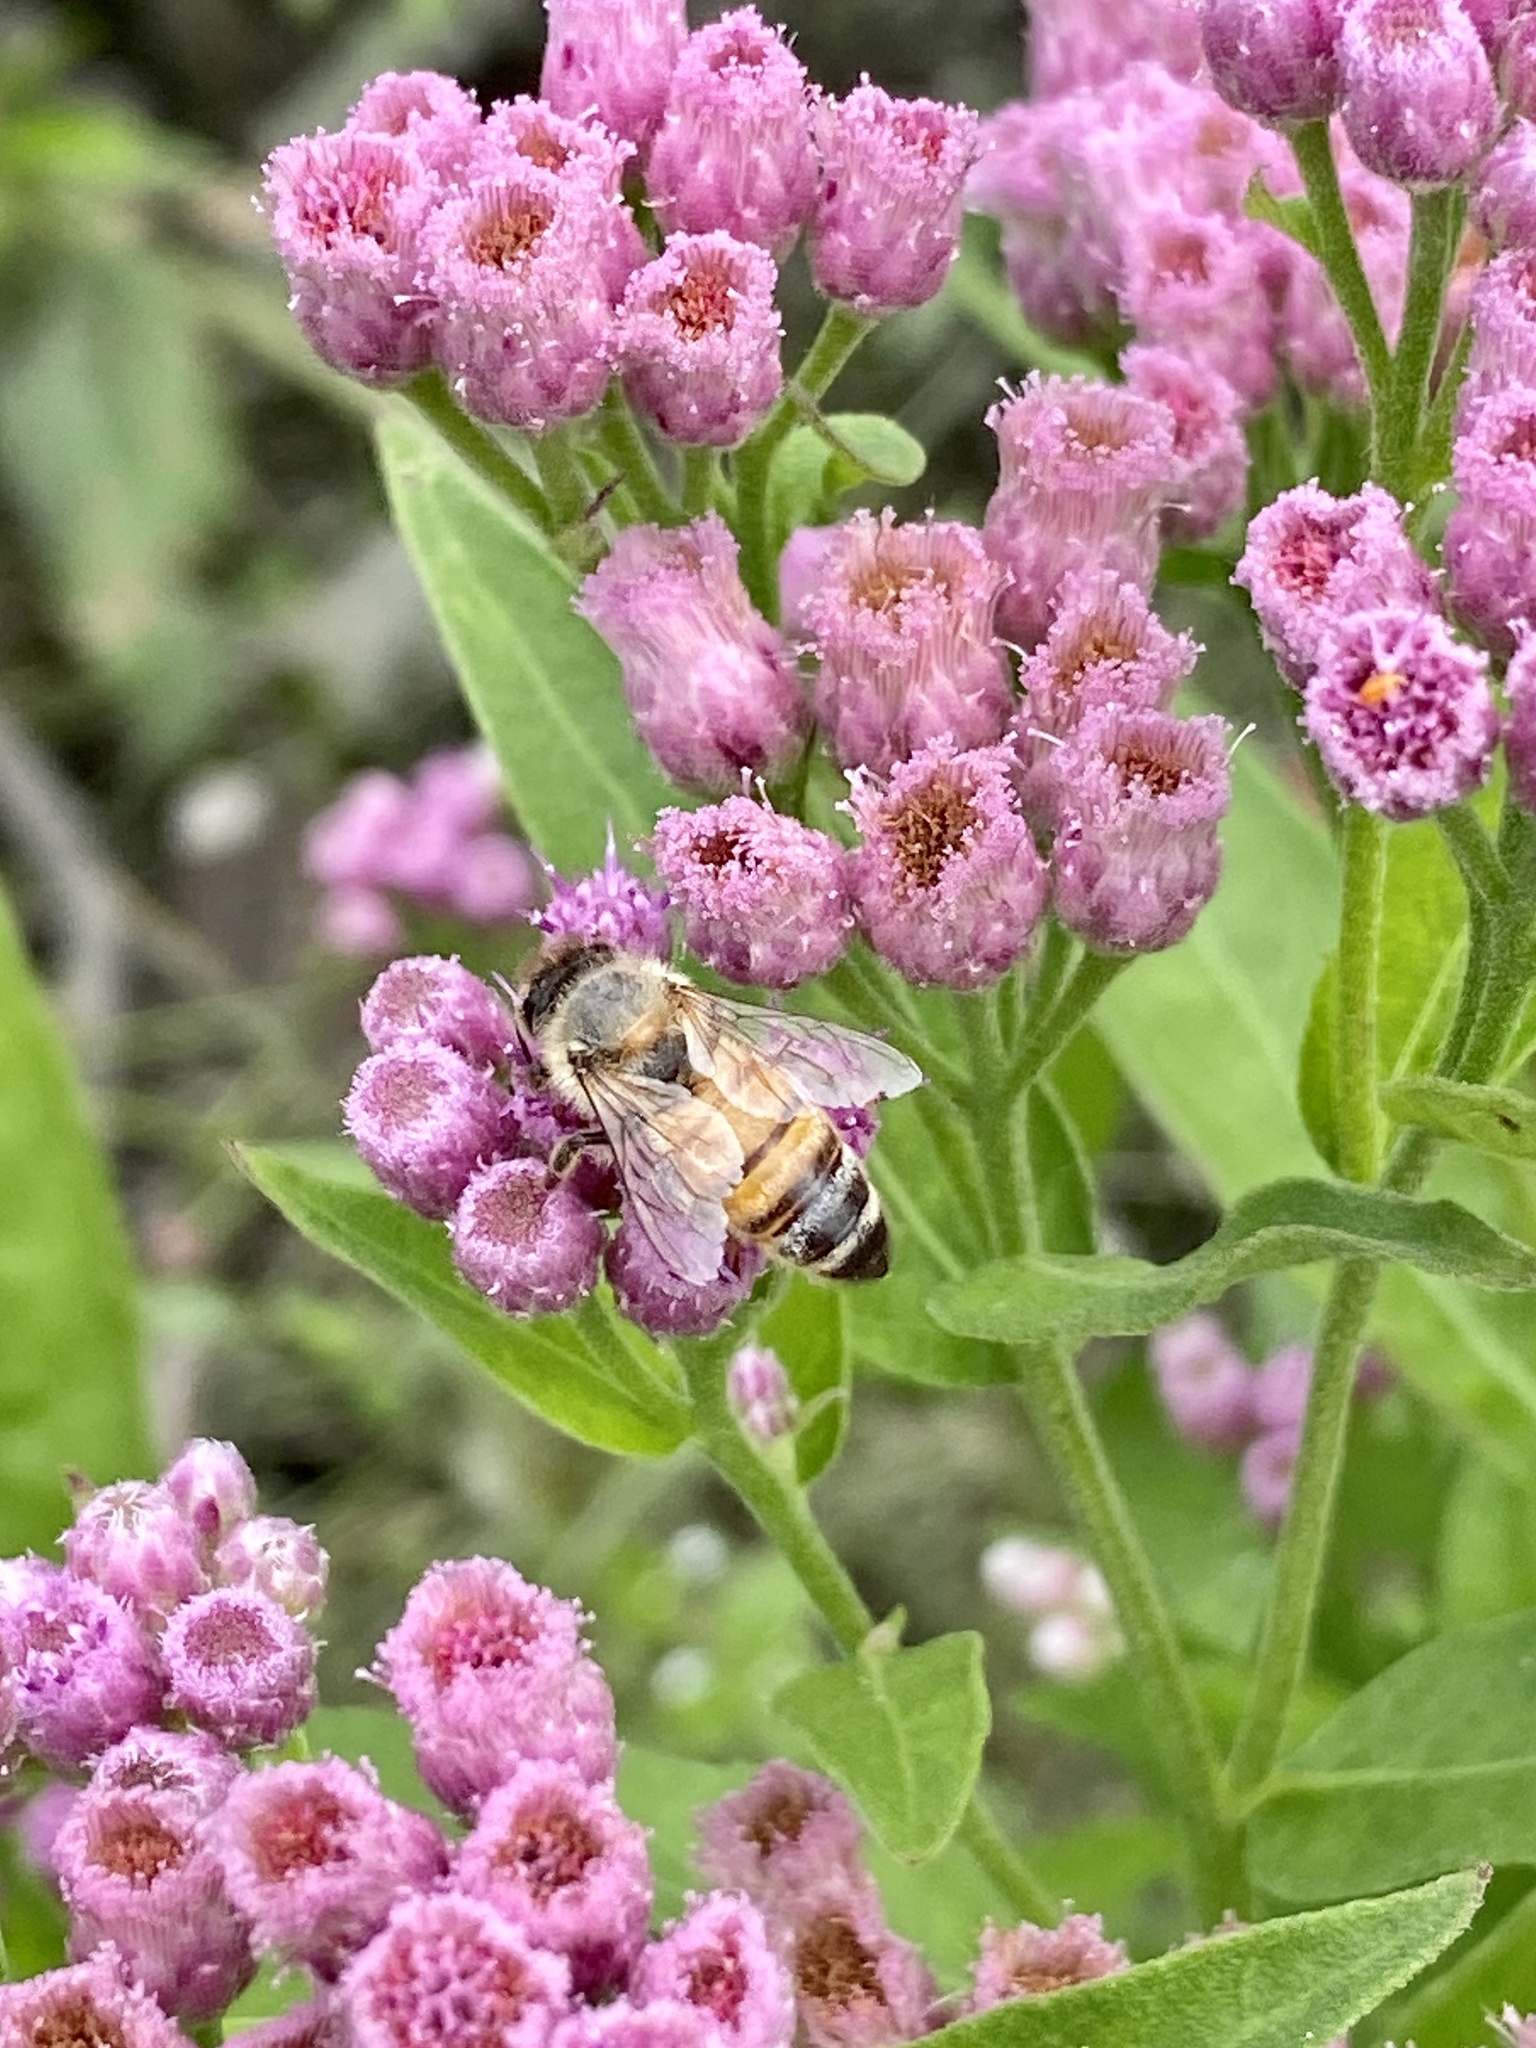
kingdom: Animalia
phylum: Arthropoda
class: Insecta
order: Hymenoptera
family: Apidae
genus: Apis
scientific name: Apis mellifera
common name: Honey bee
